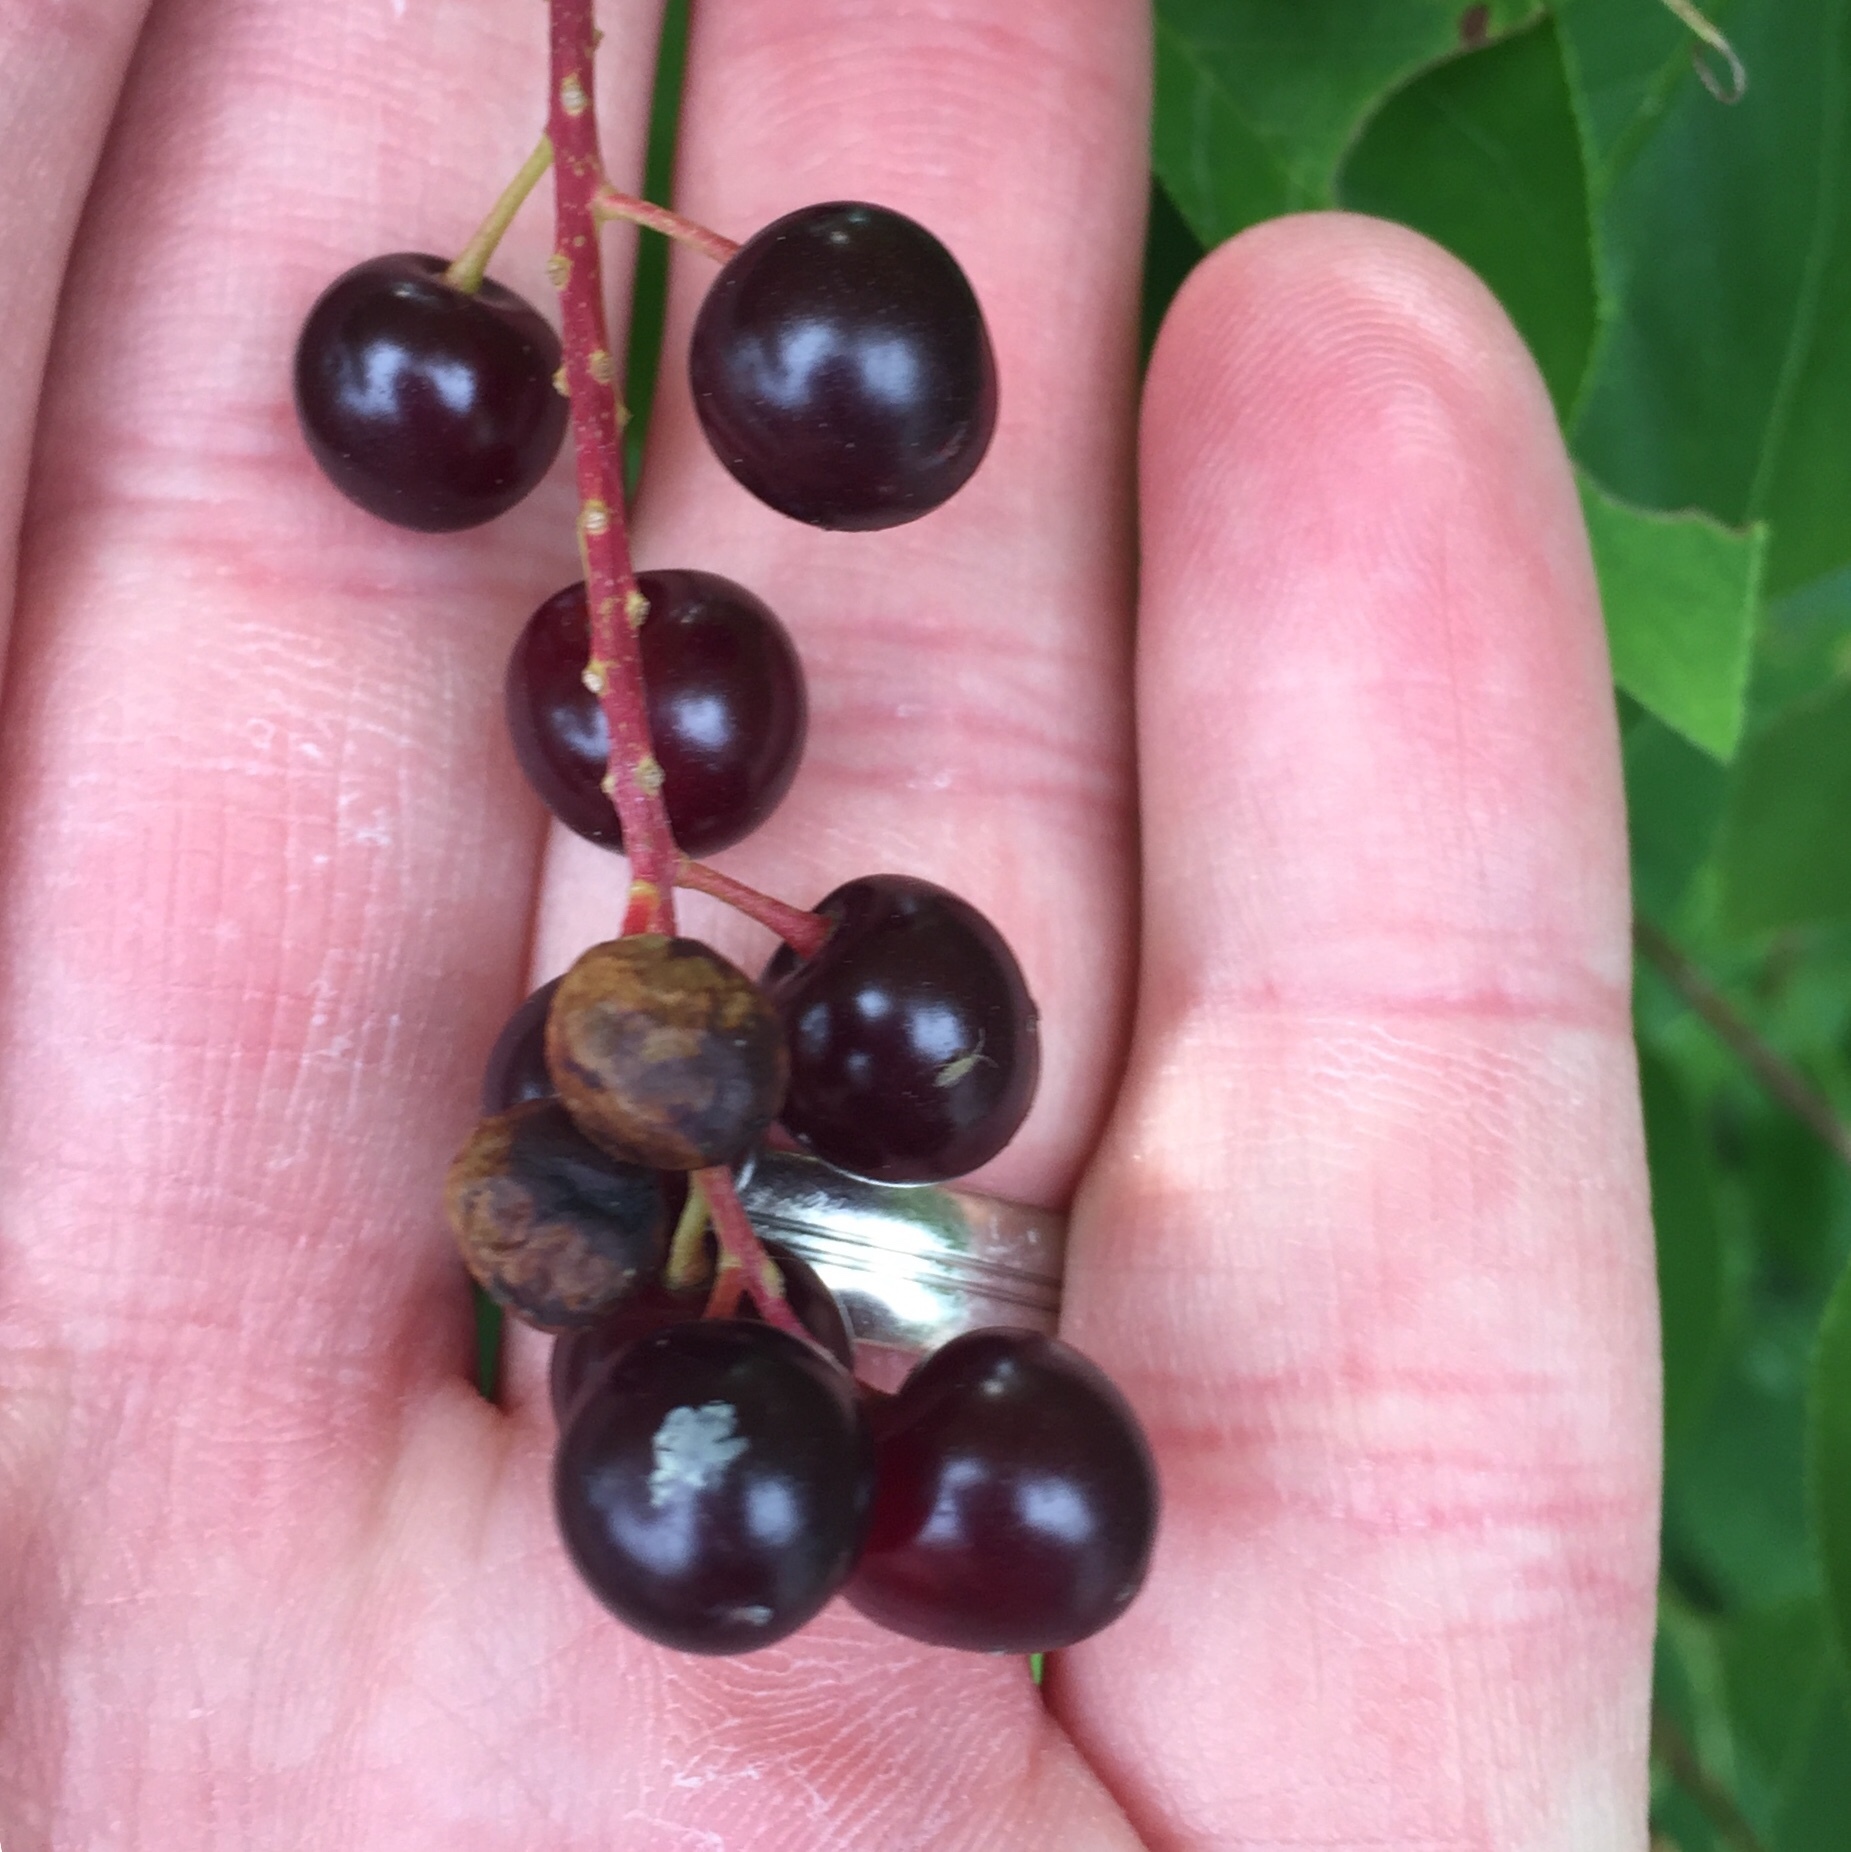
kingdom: Plantae
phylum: Tracheophyta
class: Magnoliopsida
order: Rosales
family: Rosaceae
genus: Prunus
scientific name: Prunus virginiana
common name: Chokecherry
